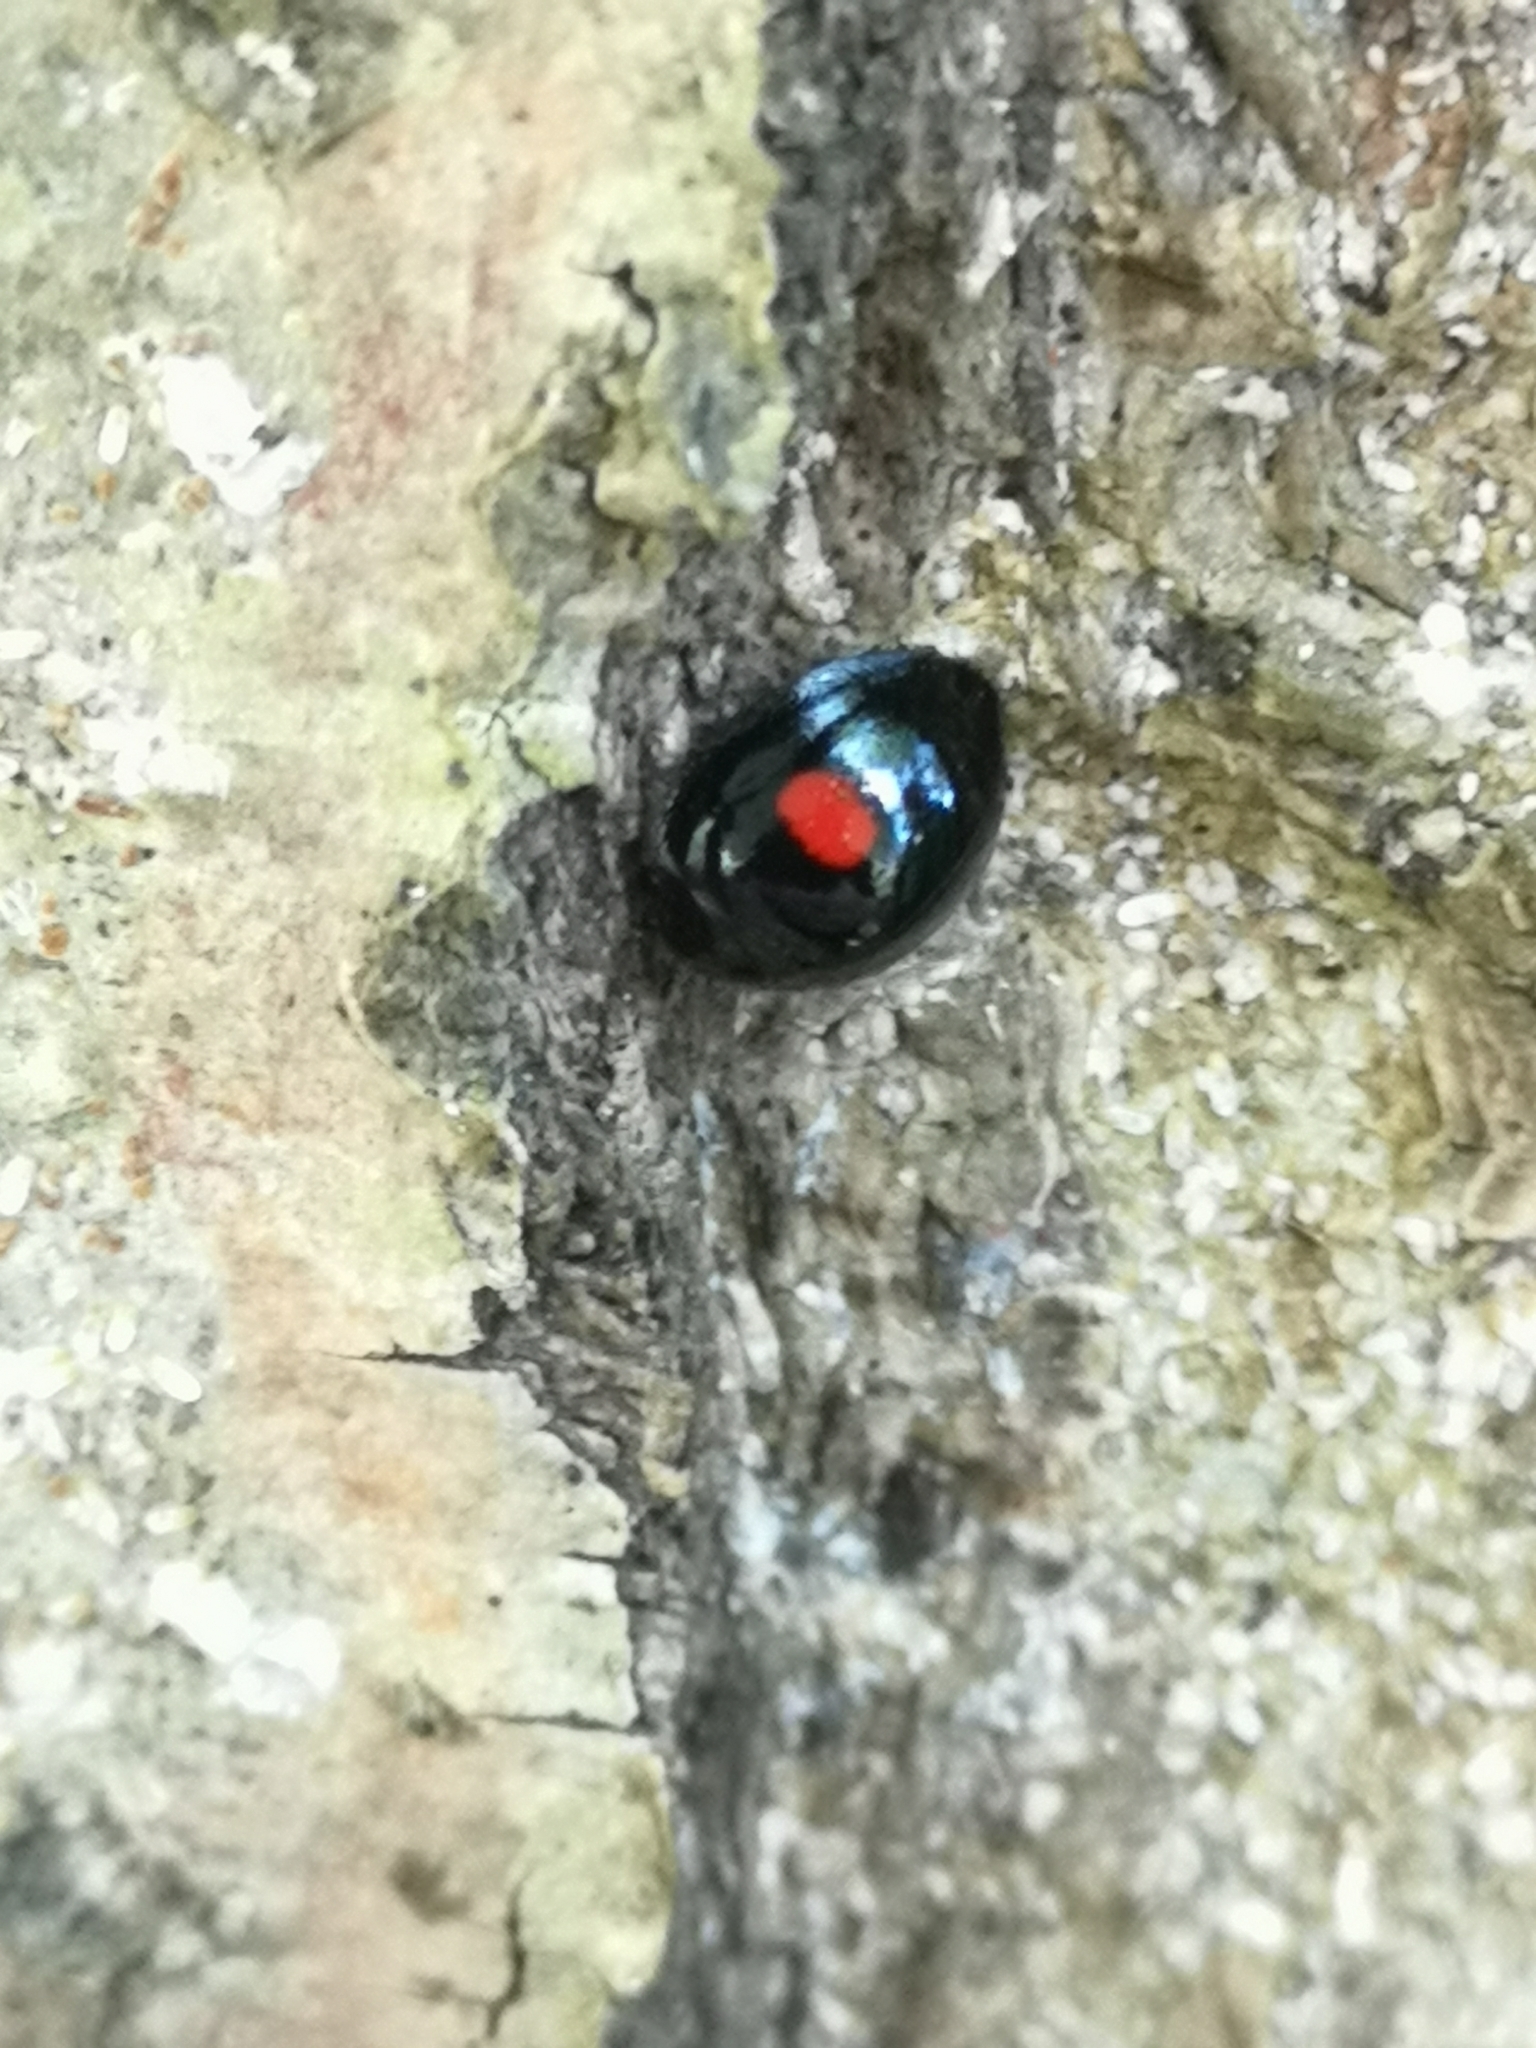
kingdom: Animalia
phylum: Arthropoda
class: Insecta
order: Coleoptera
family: Coccinellidae
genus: Chilocorus
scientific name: Chilocorus renipustulatus
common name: Kidney-spot ladybird
